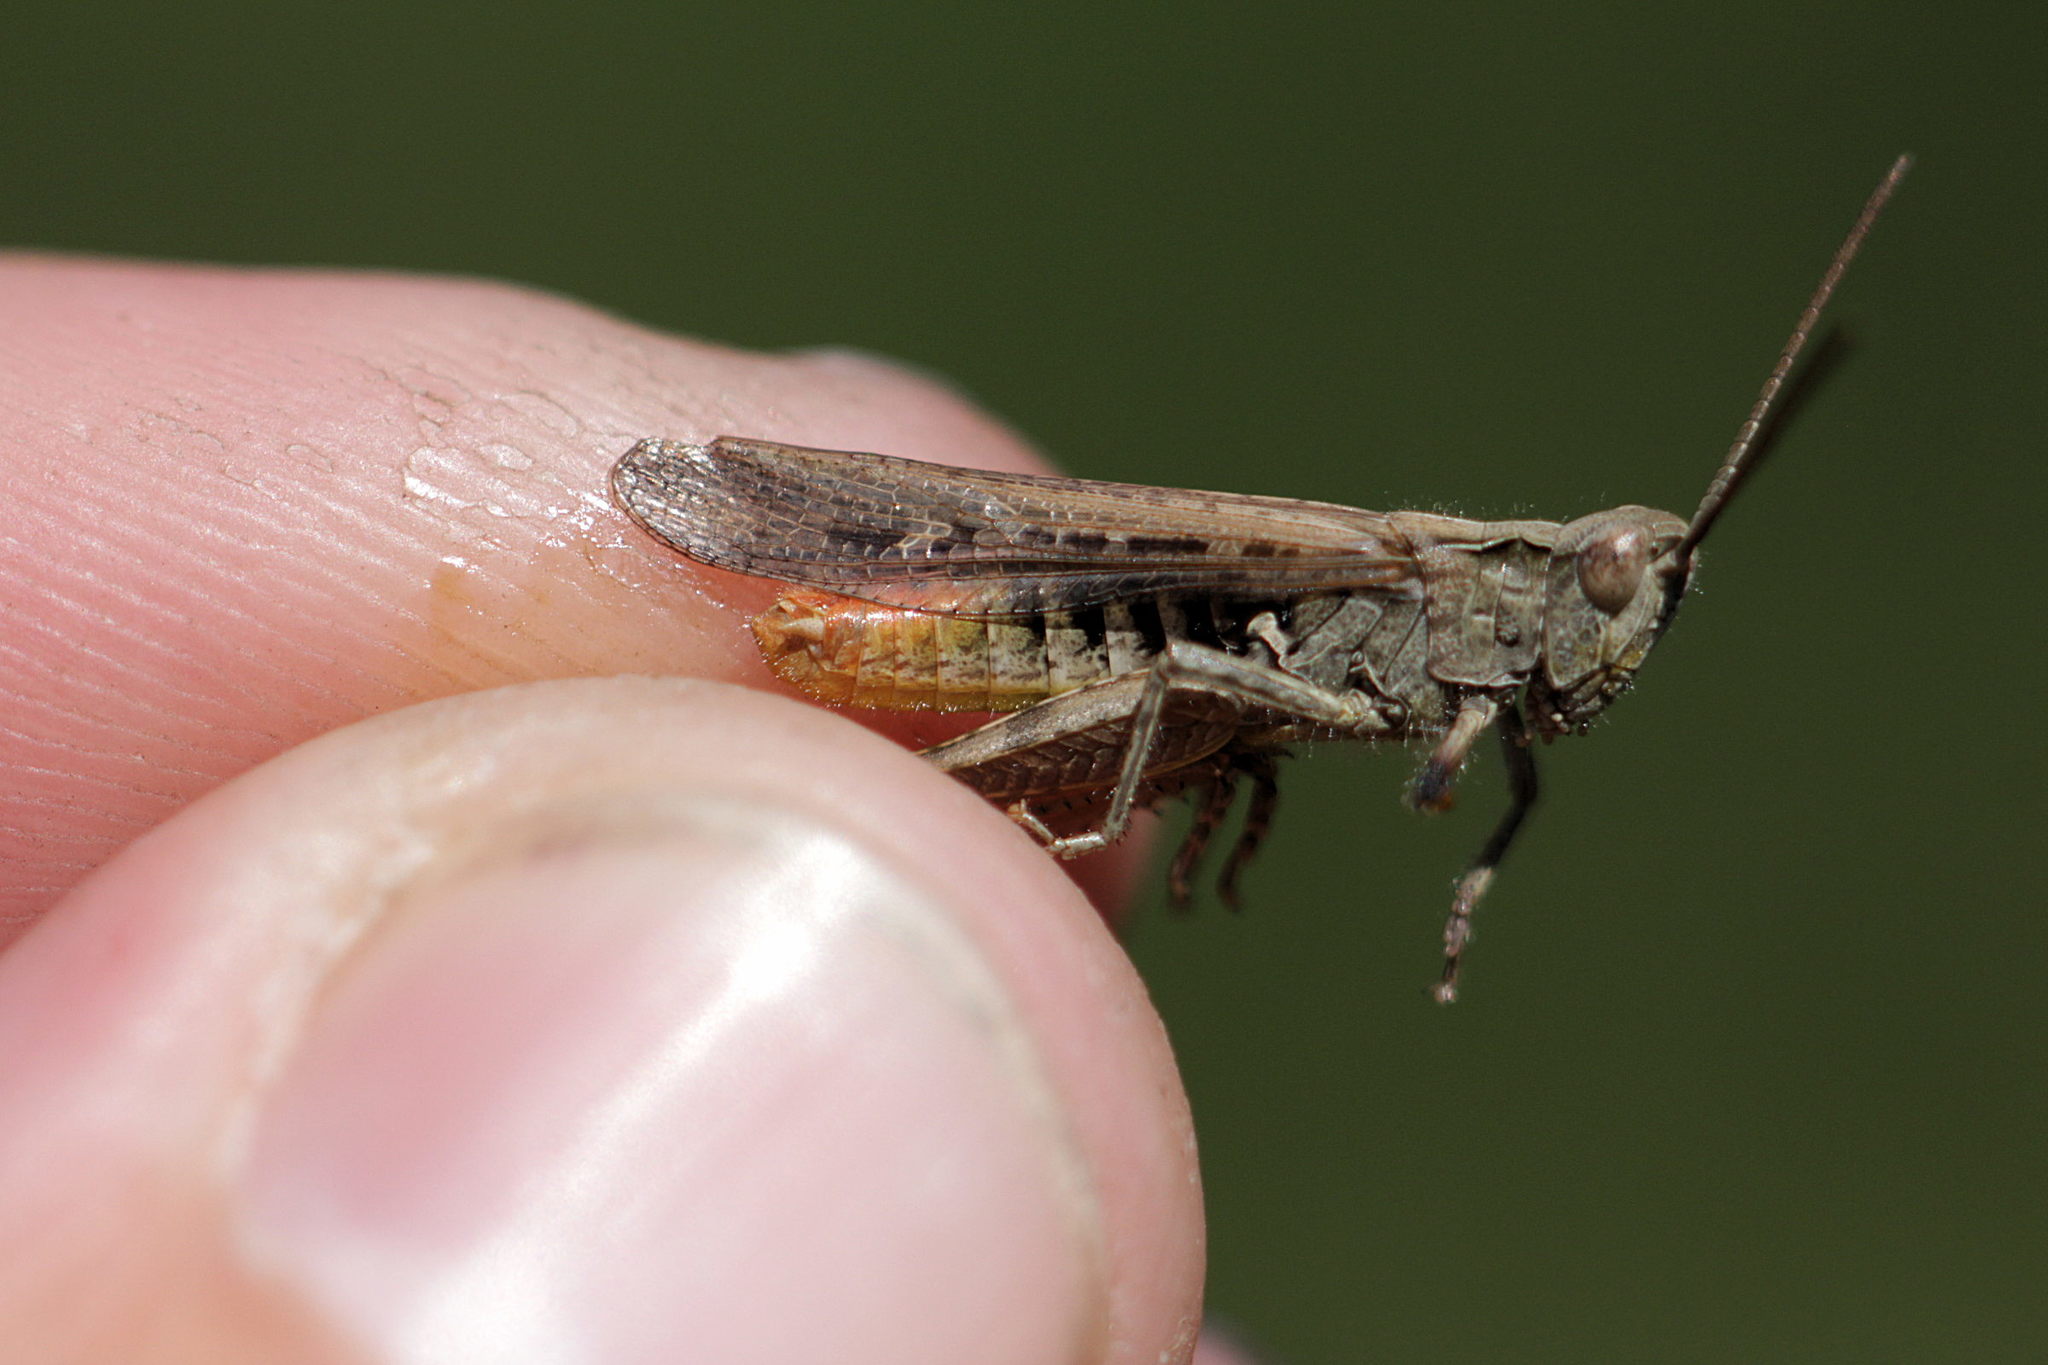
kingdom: Animalia
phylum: Arthropoda
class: Insecta
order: Orthoptera
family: Acrididae
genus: Chorthippus
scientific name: Chorthippus brunneus
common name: Field grasshopper
